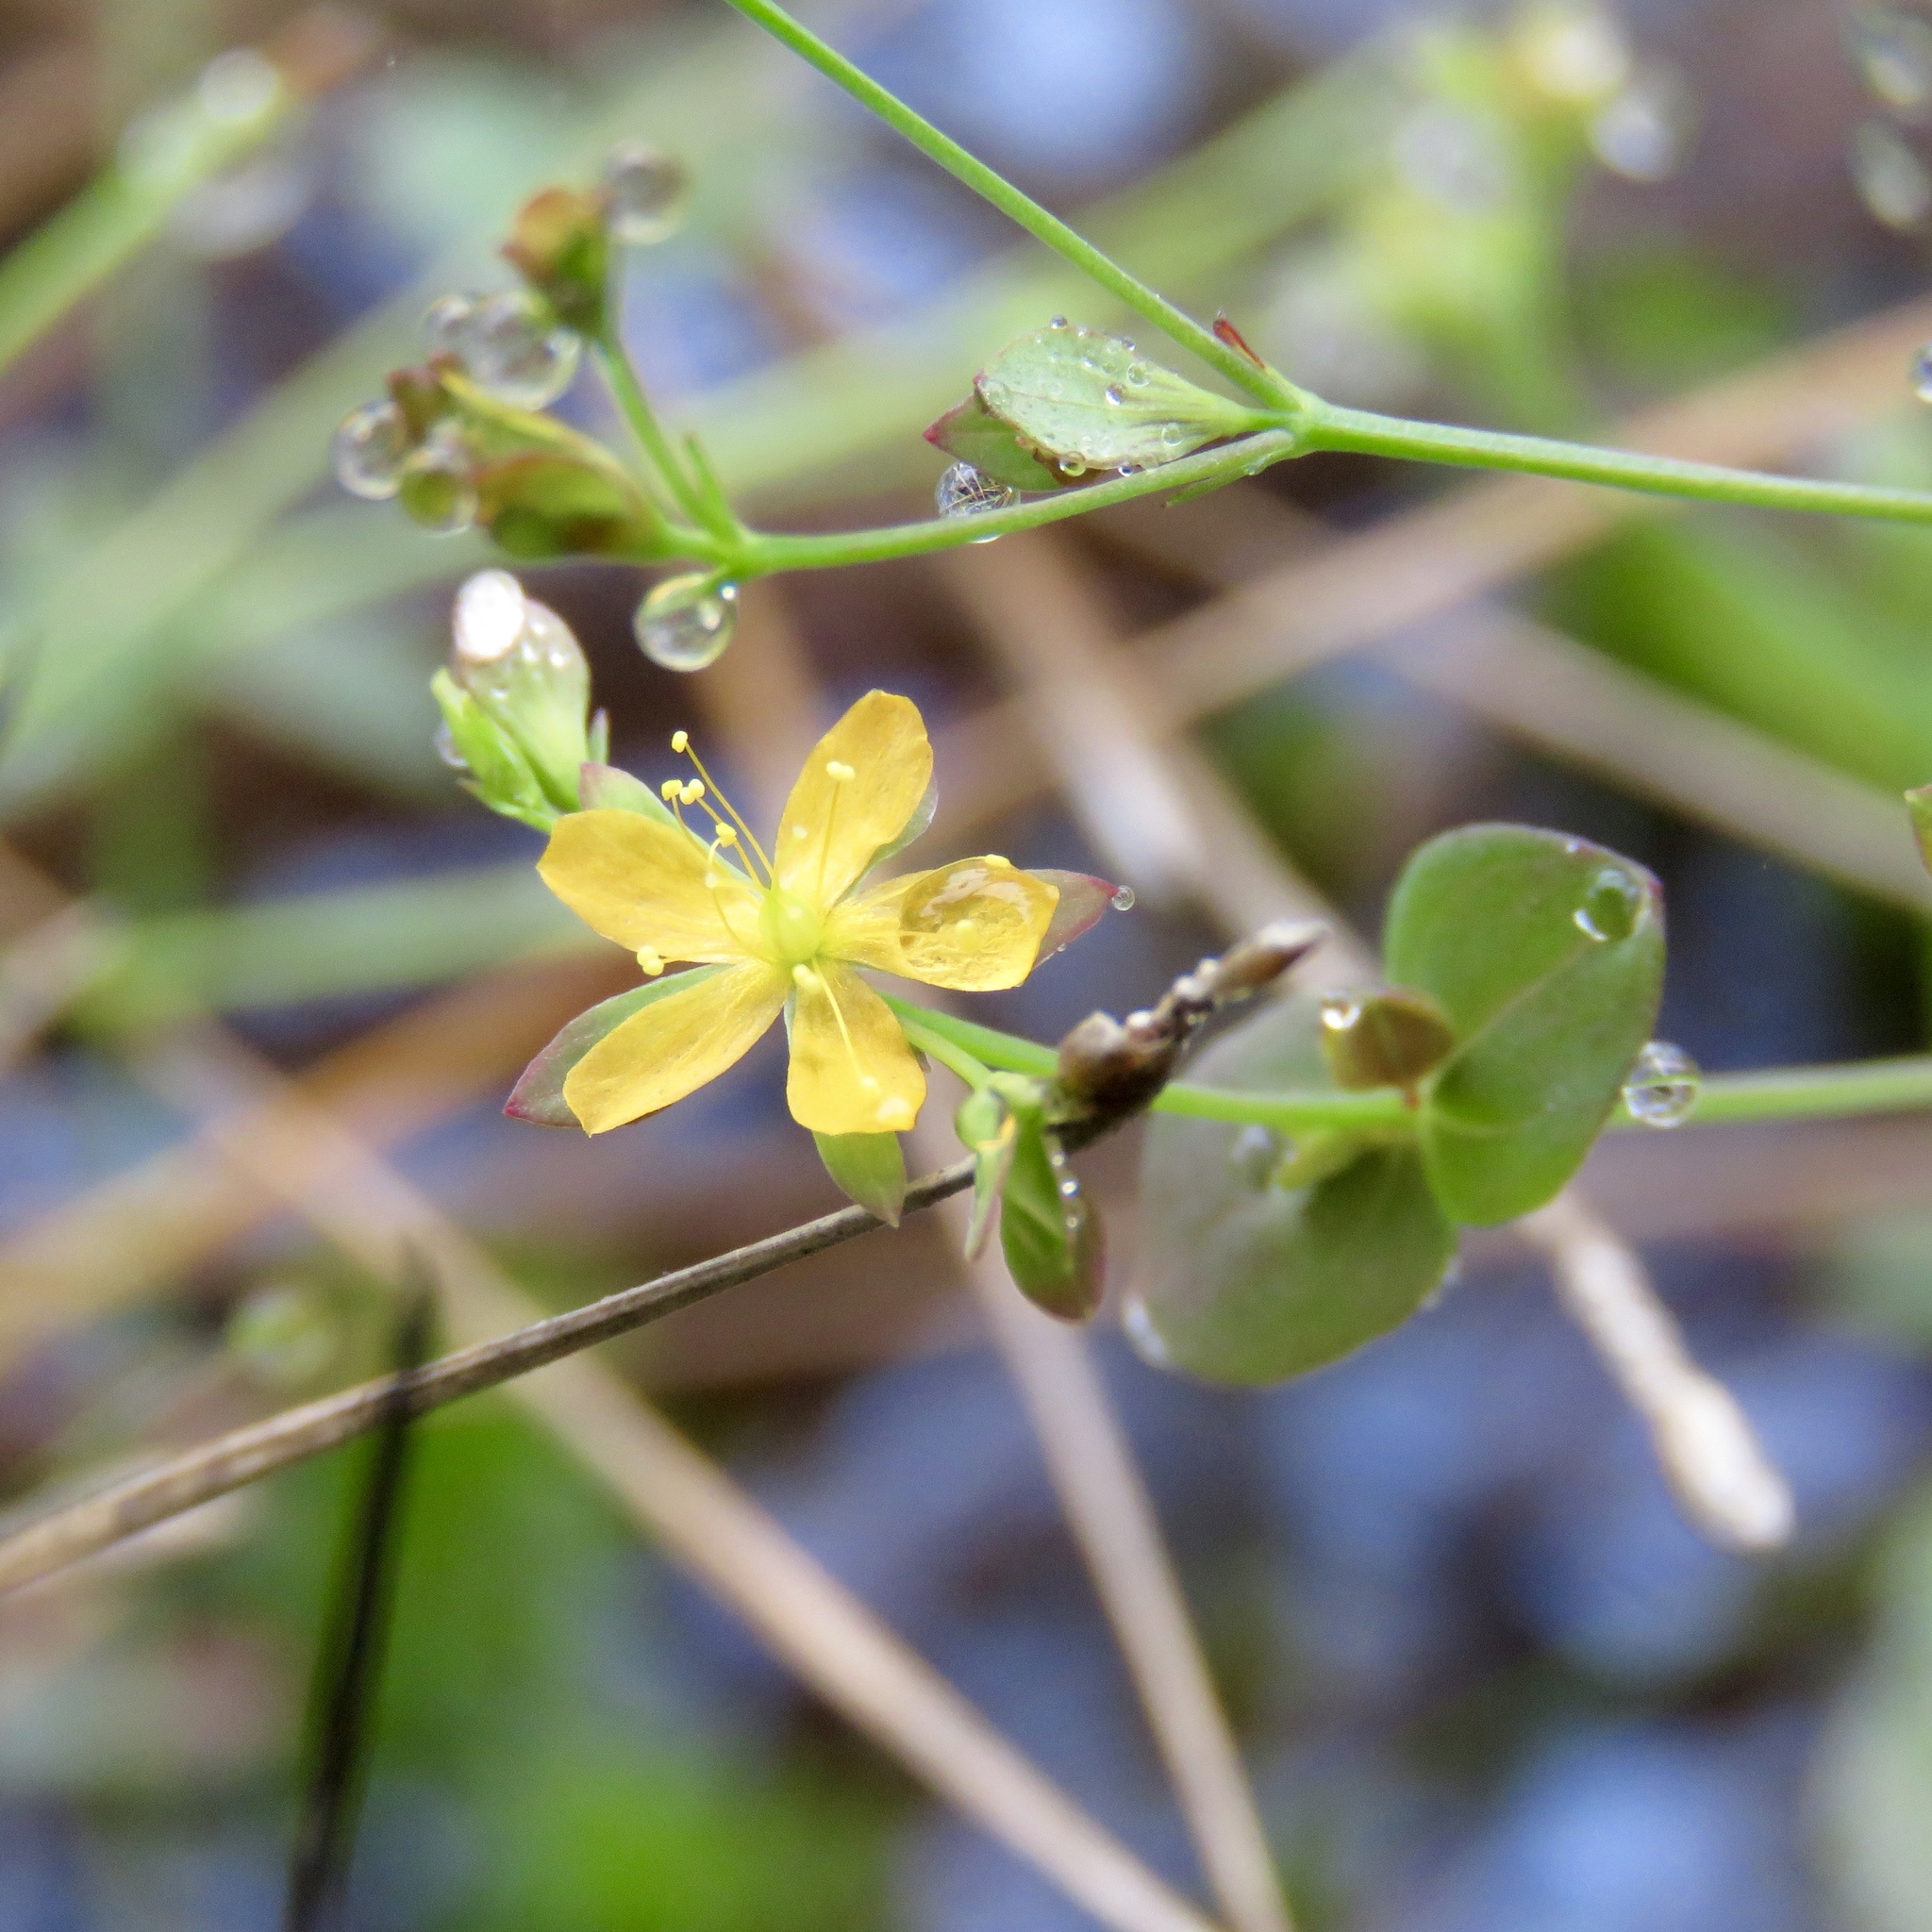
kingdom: Plantae
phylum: Tracheophyta
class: Magnoliopsida
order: Malpighiales
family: Hypericaceae
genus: Hypericum
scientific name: Hypericum mutilum
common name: Dwarf st. john's-wort
